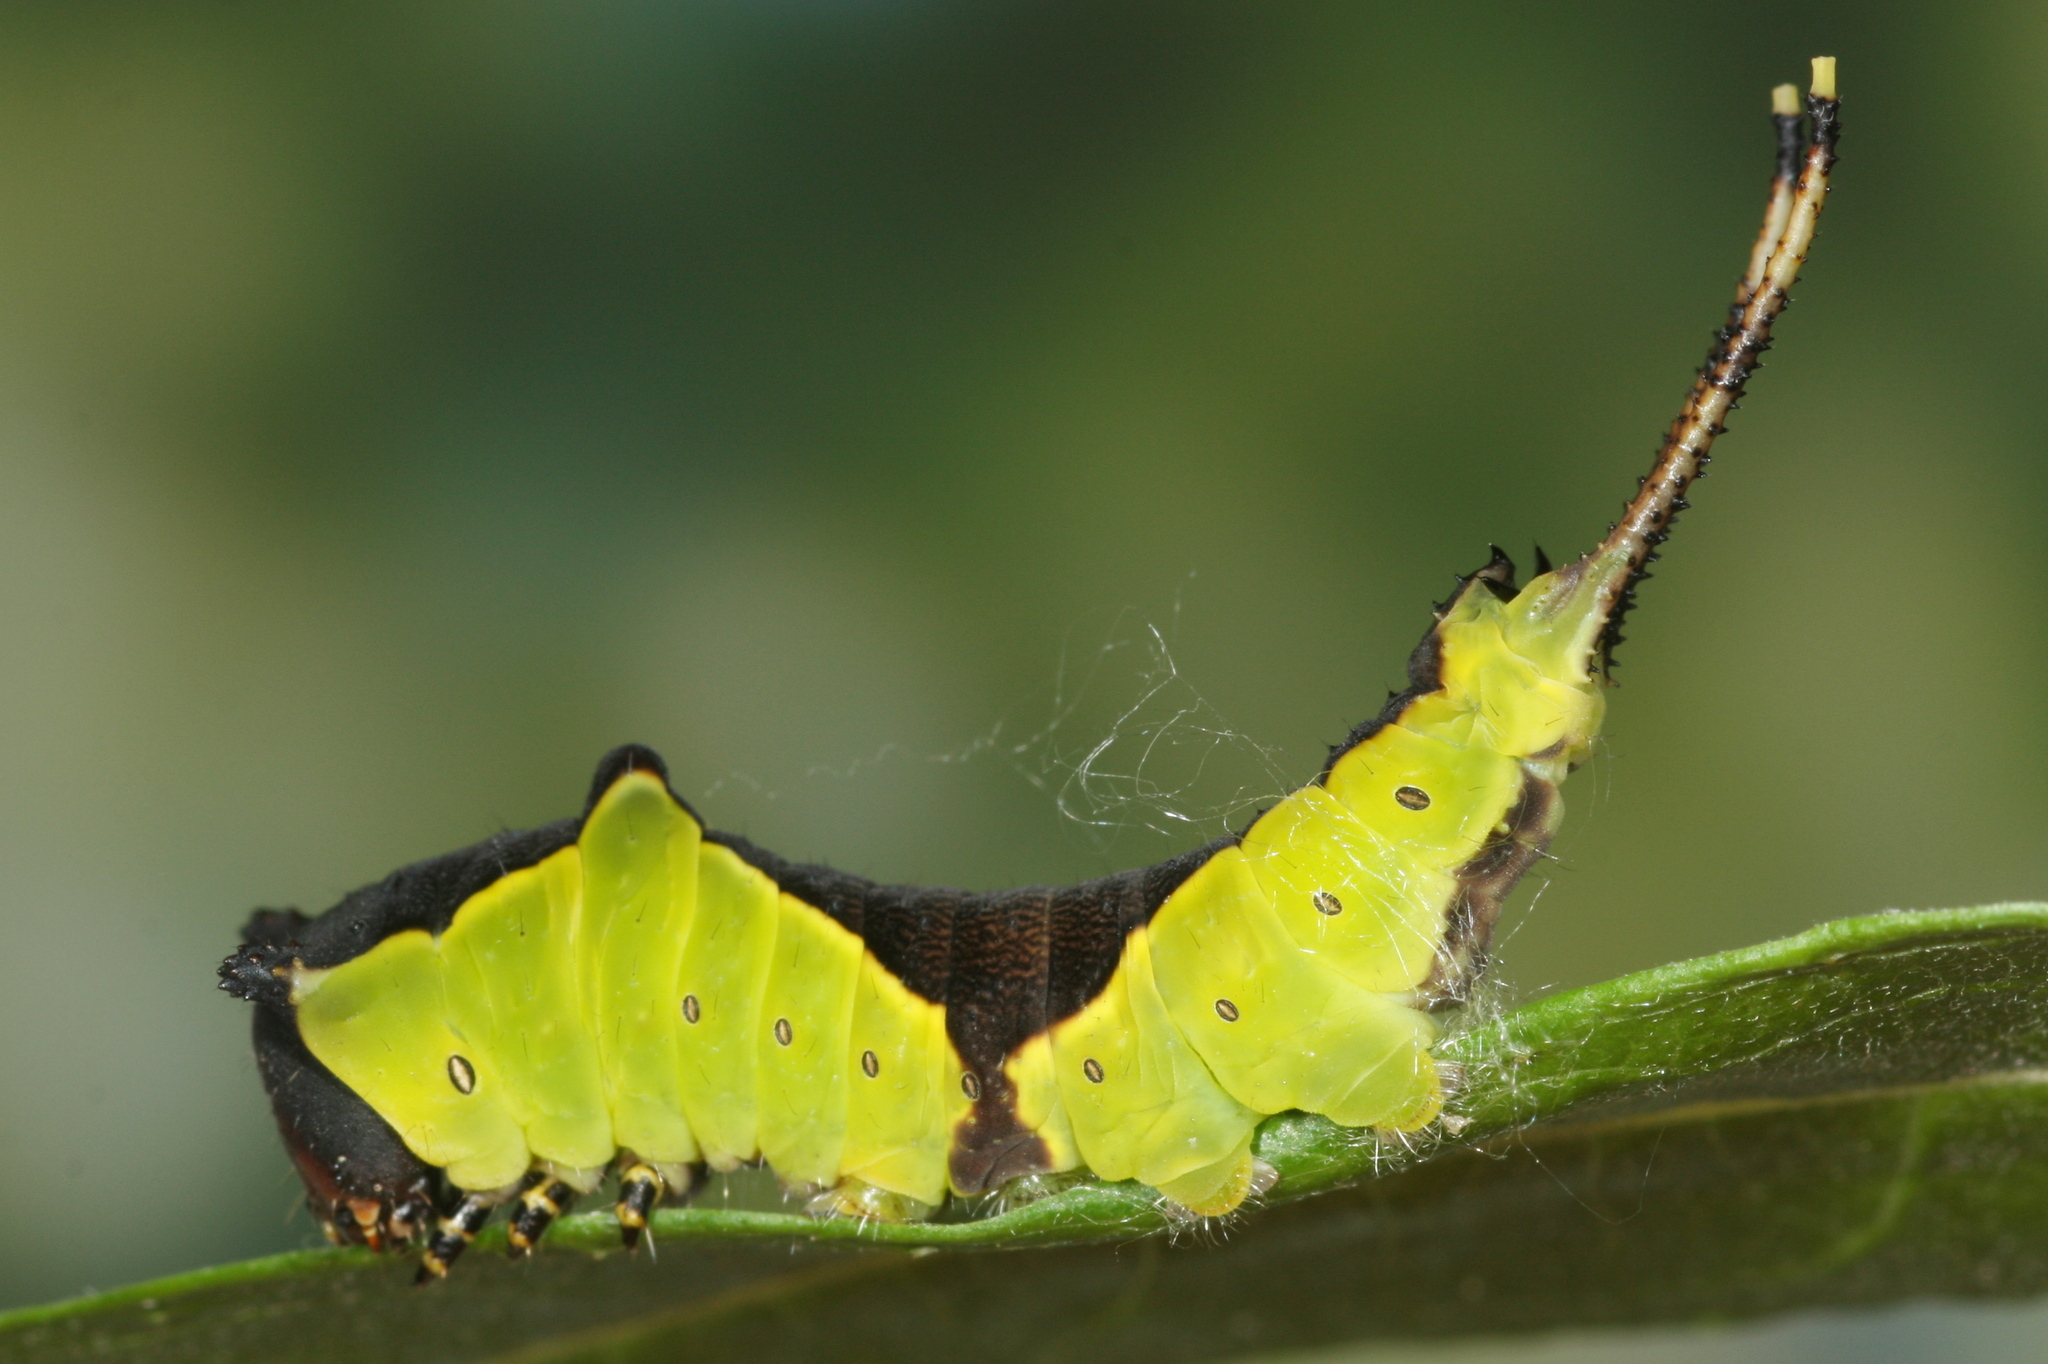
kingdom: Animalia
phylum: Arthropoda
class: Insecta
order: Lepidoptera
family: Notodontidae
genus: Cerura
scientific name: Cerura vinula
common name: Puss moth
